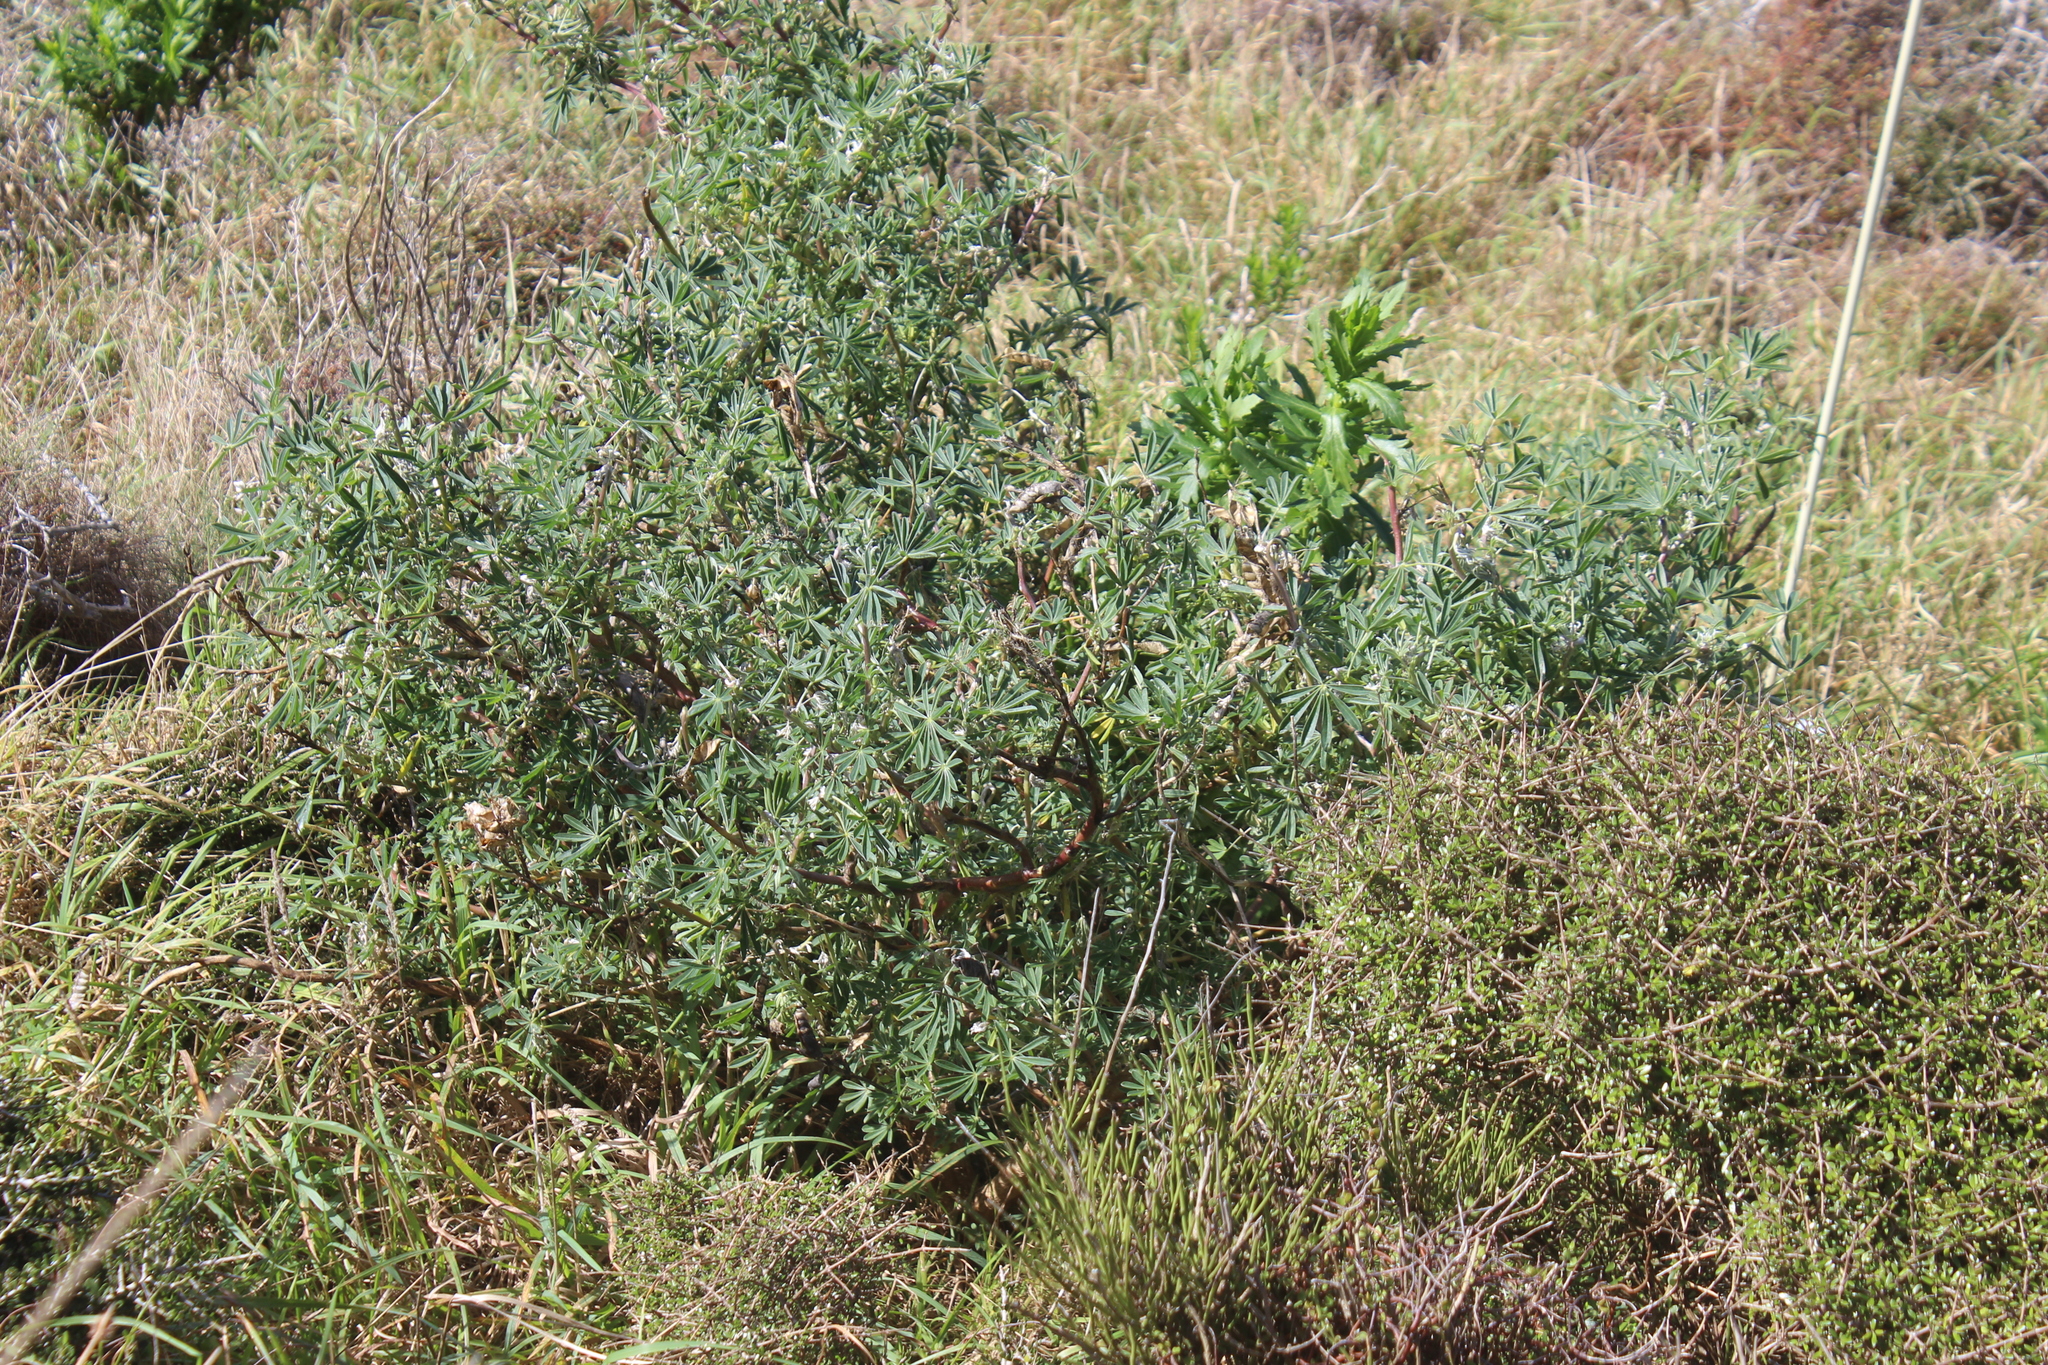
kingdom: Plantae
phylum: Tracheophyta
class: Magnoliopsida
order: Fabales
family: Fabaceae
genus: Lupinus
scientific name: Lupinus arboreus
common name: Yellow bush lupine
